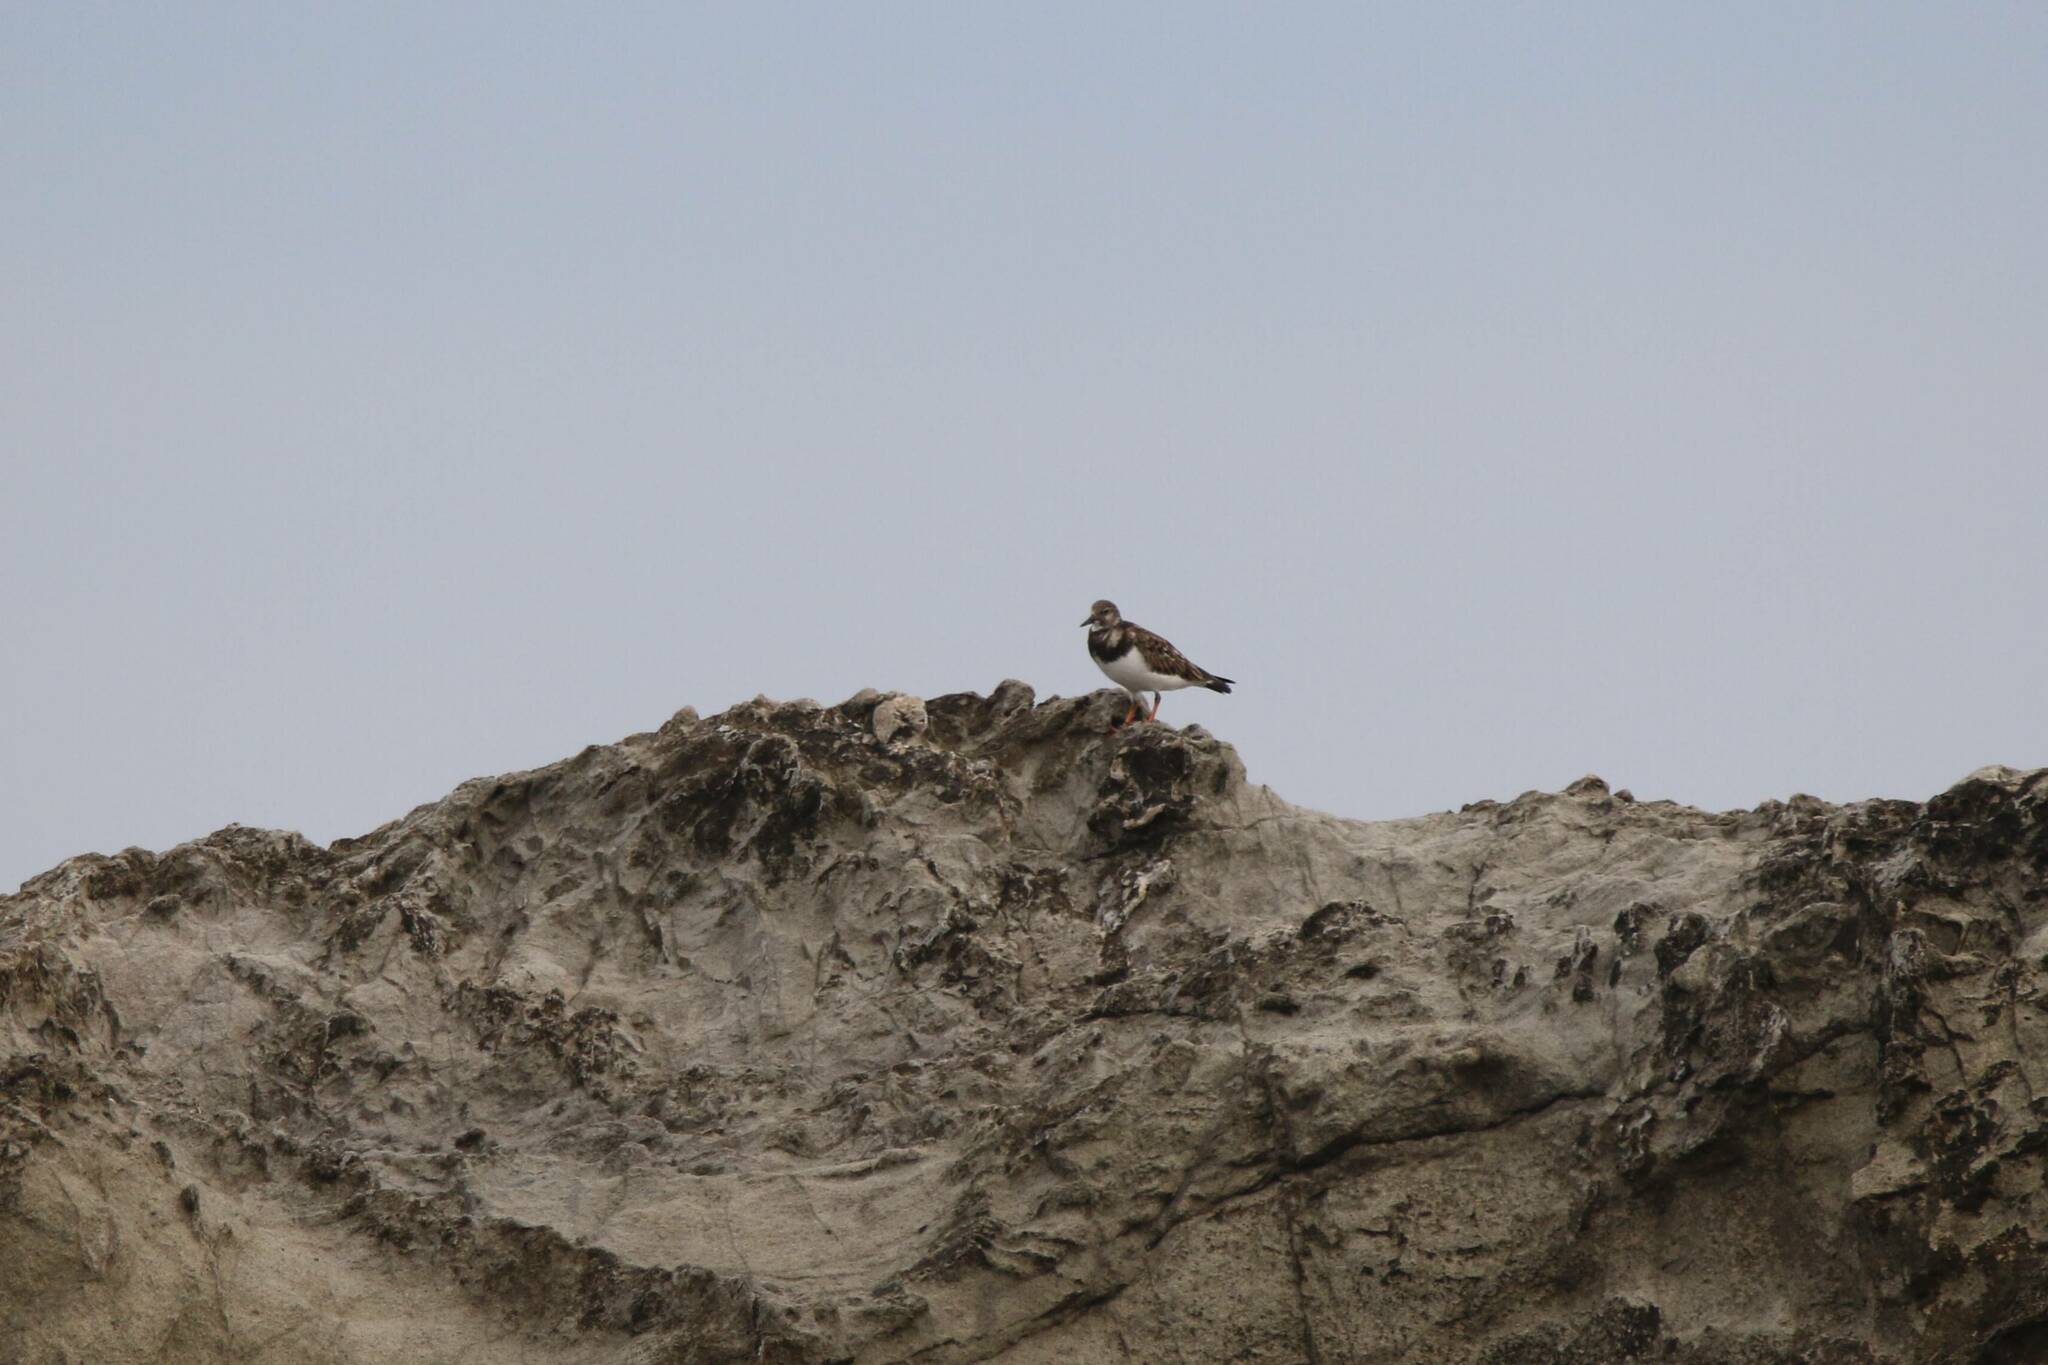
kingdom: Animalia
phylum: Chordata
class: Aves
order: Charadriiformes
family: Scolopacidae
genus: Arenaria
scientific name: Arenaria interpres
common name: Ruddy turnstone
